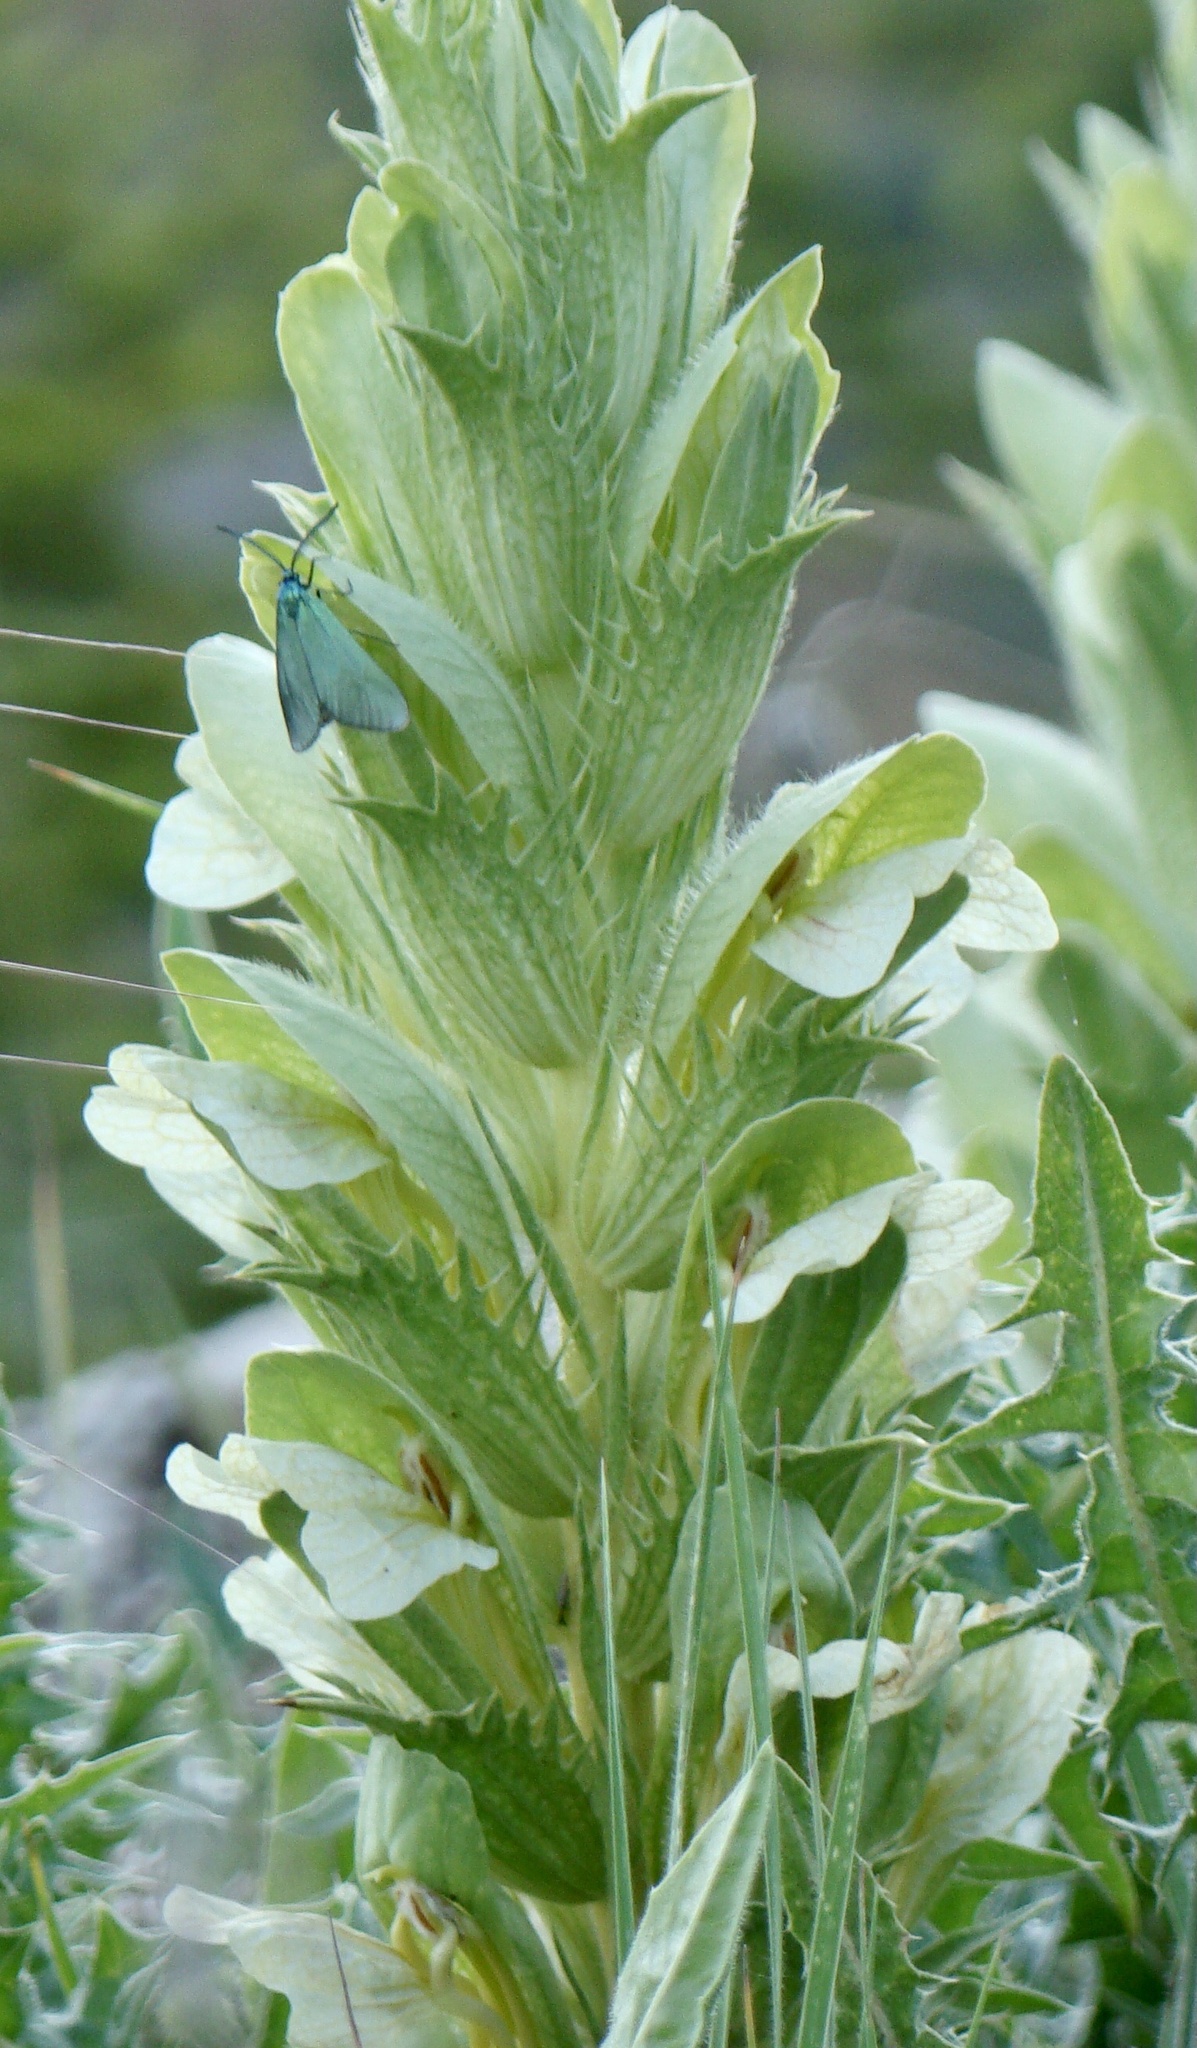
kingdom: Plantae
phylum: Tracheophyta
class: Magnoliopsida
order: Lamiales
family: Acanthaceae
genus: Acanthus
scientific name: Acanthus hirsutus
